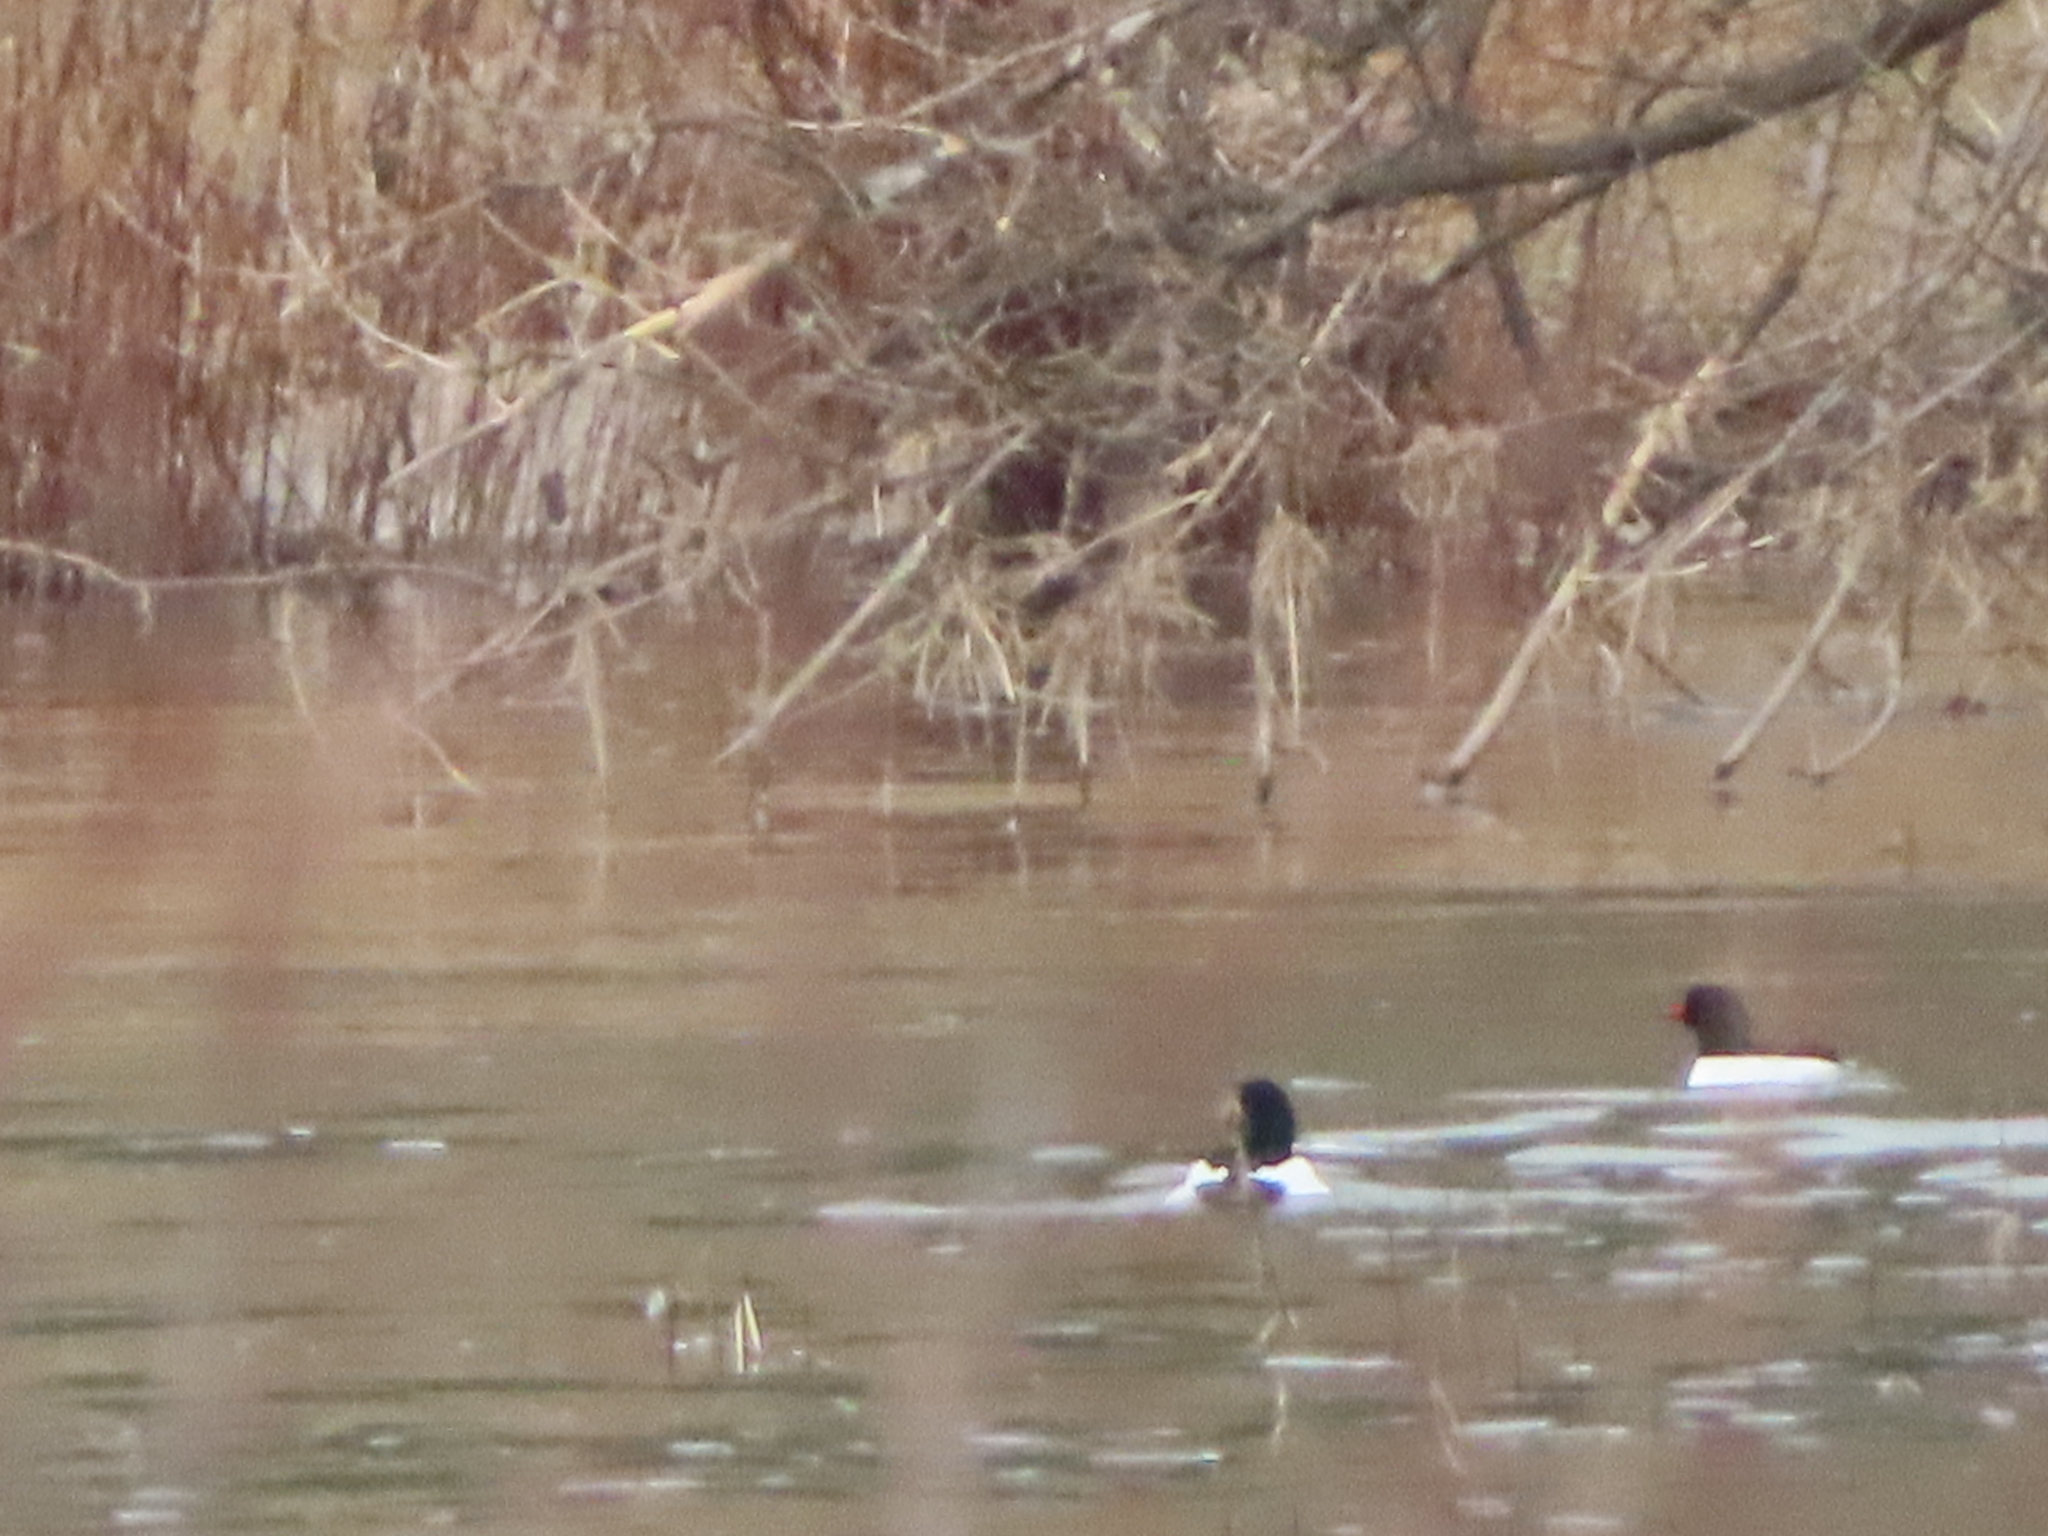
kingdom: Animalia
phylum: Chordata
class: Aves
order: Anseriformes
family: Anatidae
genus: Mergus
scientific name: Mergus merganser
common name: Common merganser
